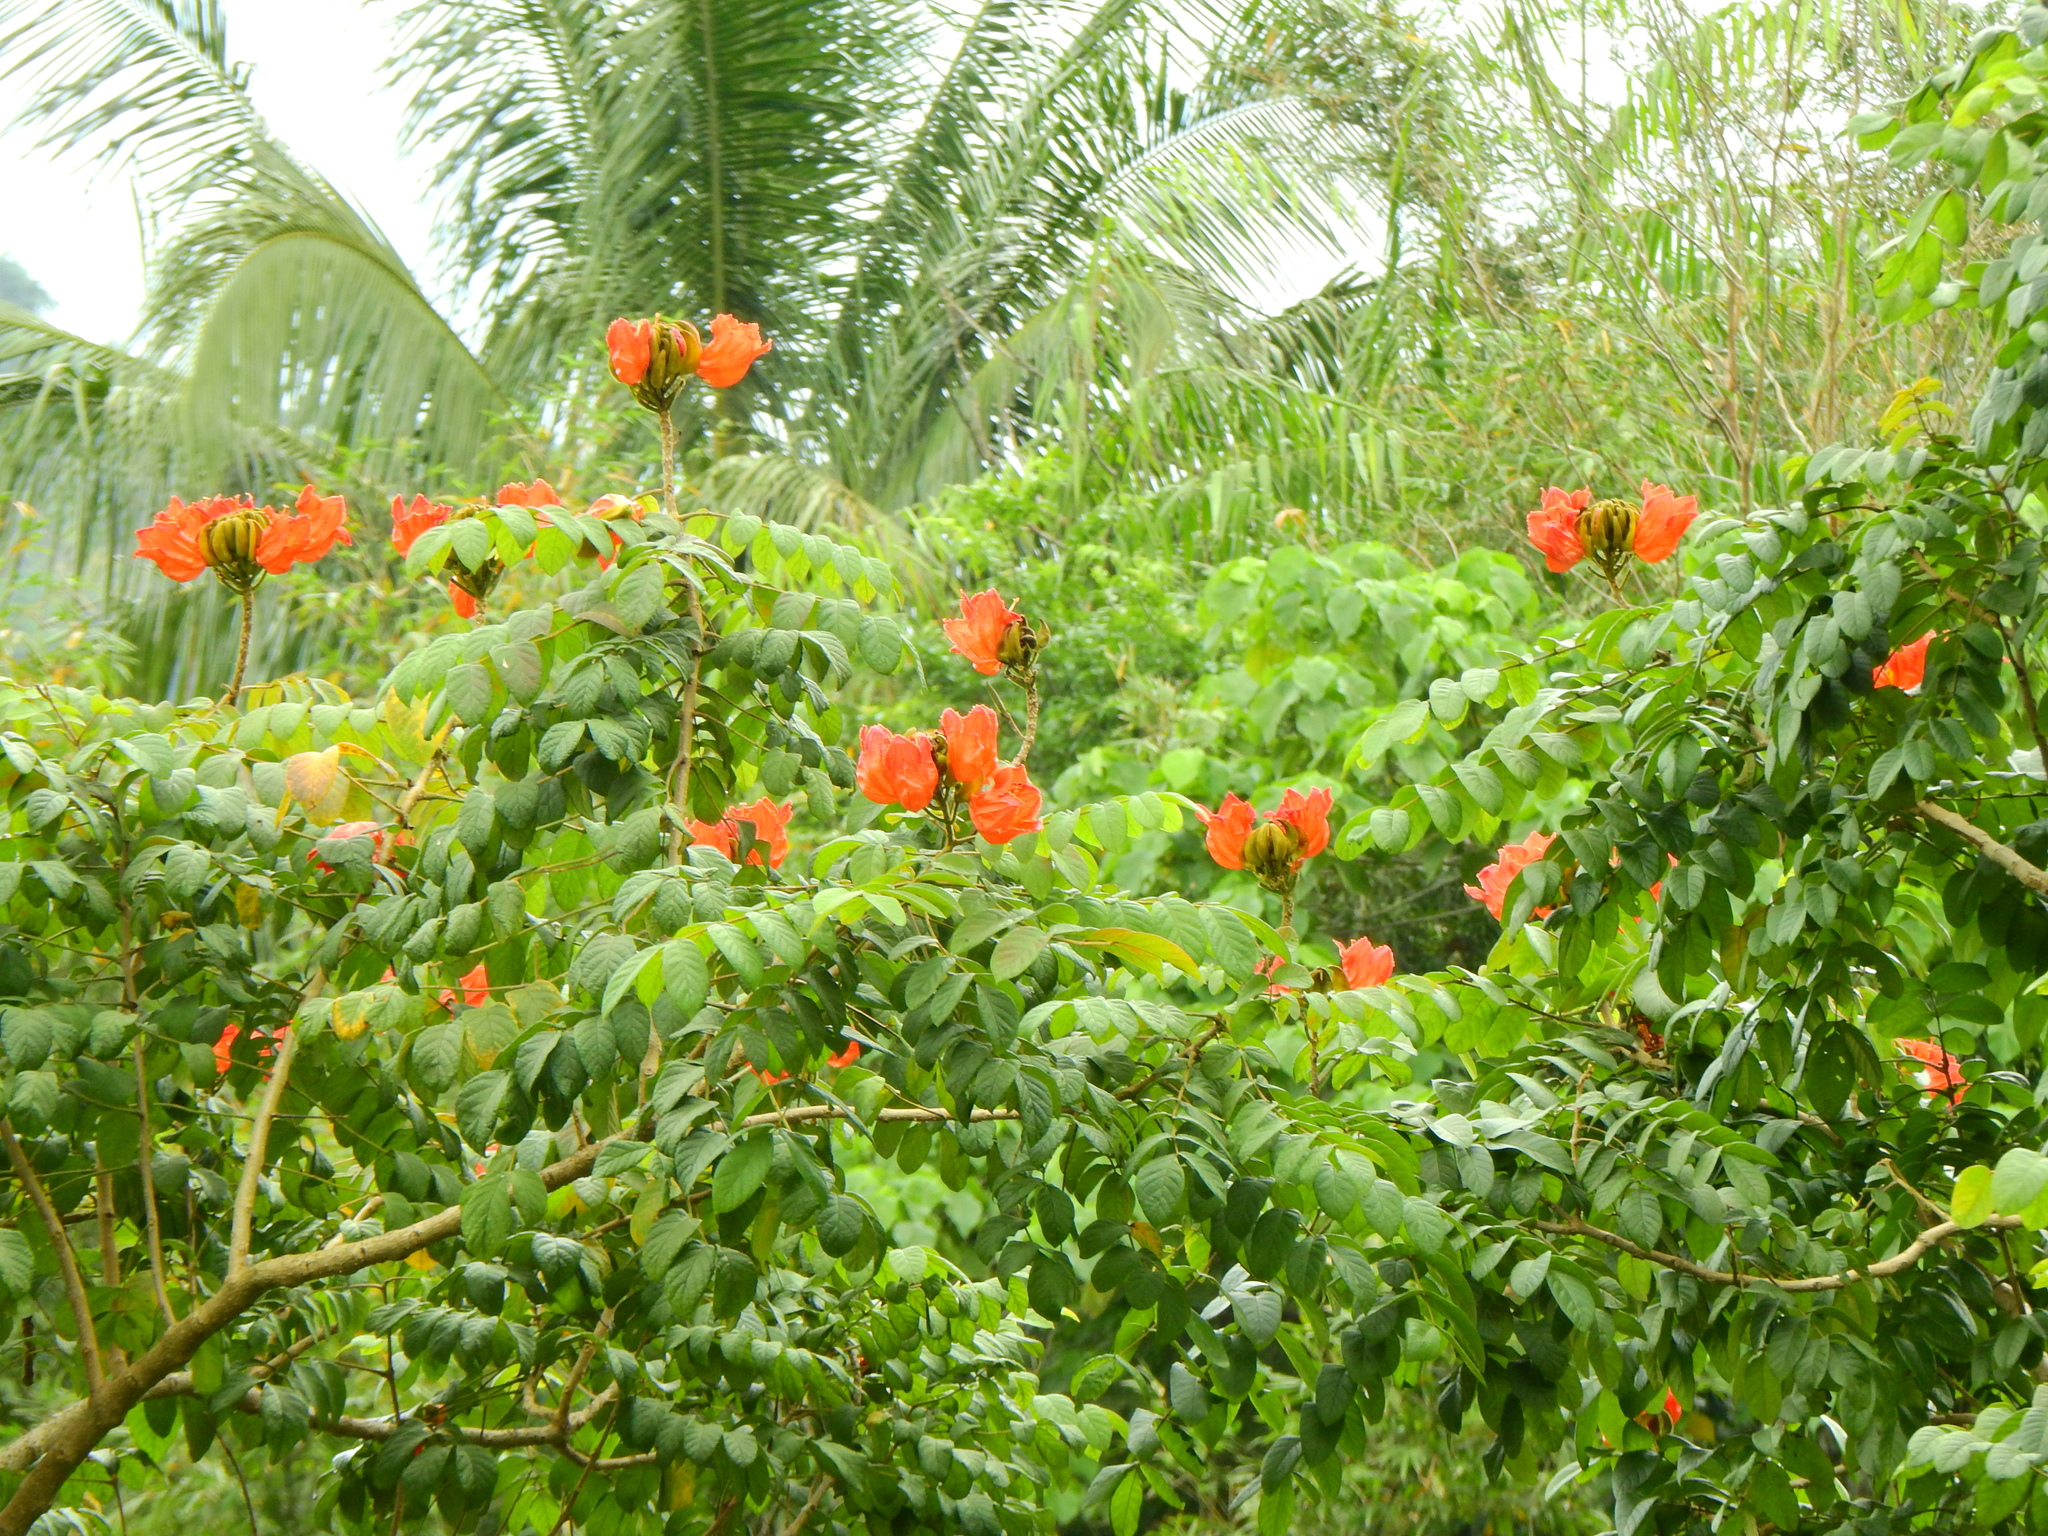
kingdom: Plantae
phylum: Tracheophyta
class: Magnoliopsida
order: Lamiales
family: Bignoniaceae
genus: Spathodea
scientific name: Spathodea campanulata
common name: African tuliptree
